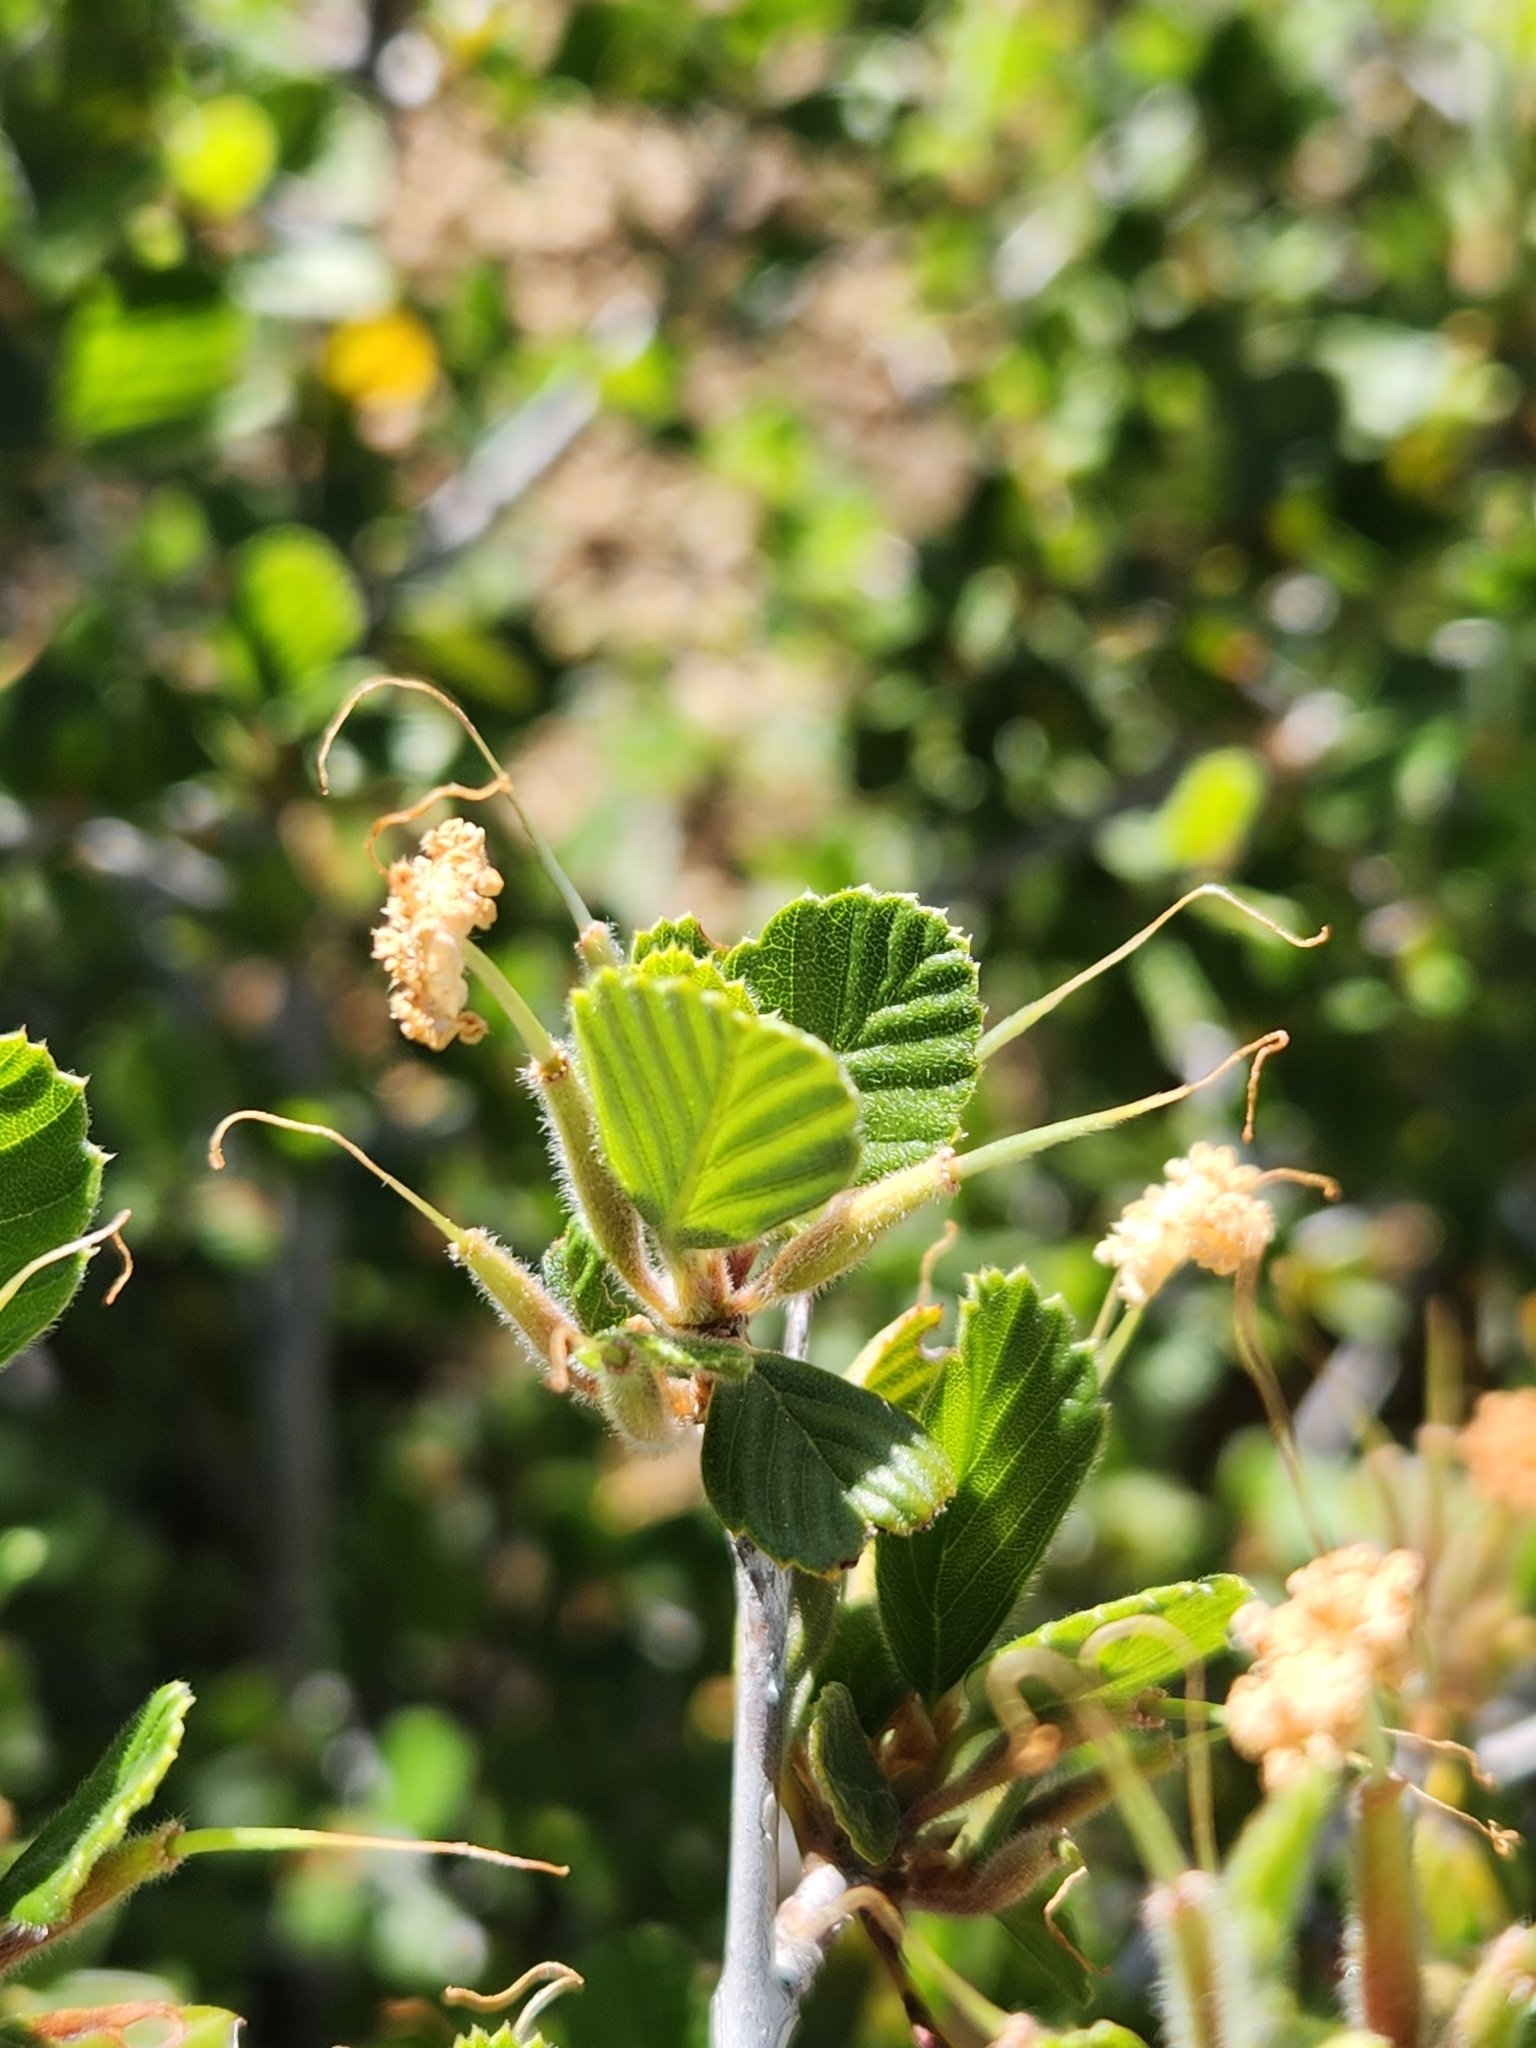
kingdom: Plantae
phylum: Tracheophyta
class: Magnoliopsida
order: Rosales
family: Rosaceae
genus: Cercocarpus
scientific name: Cercocarpus betuloides
